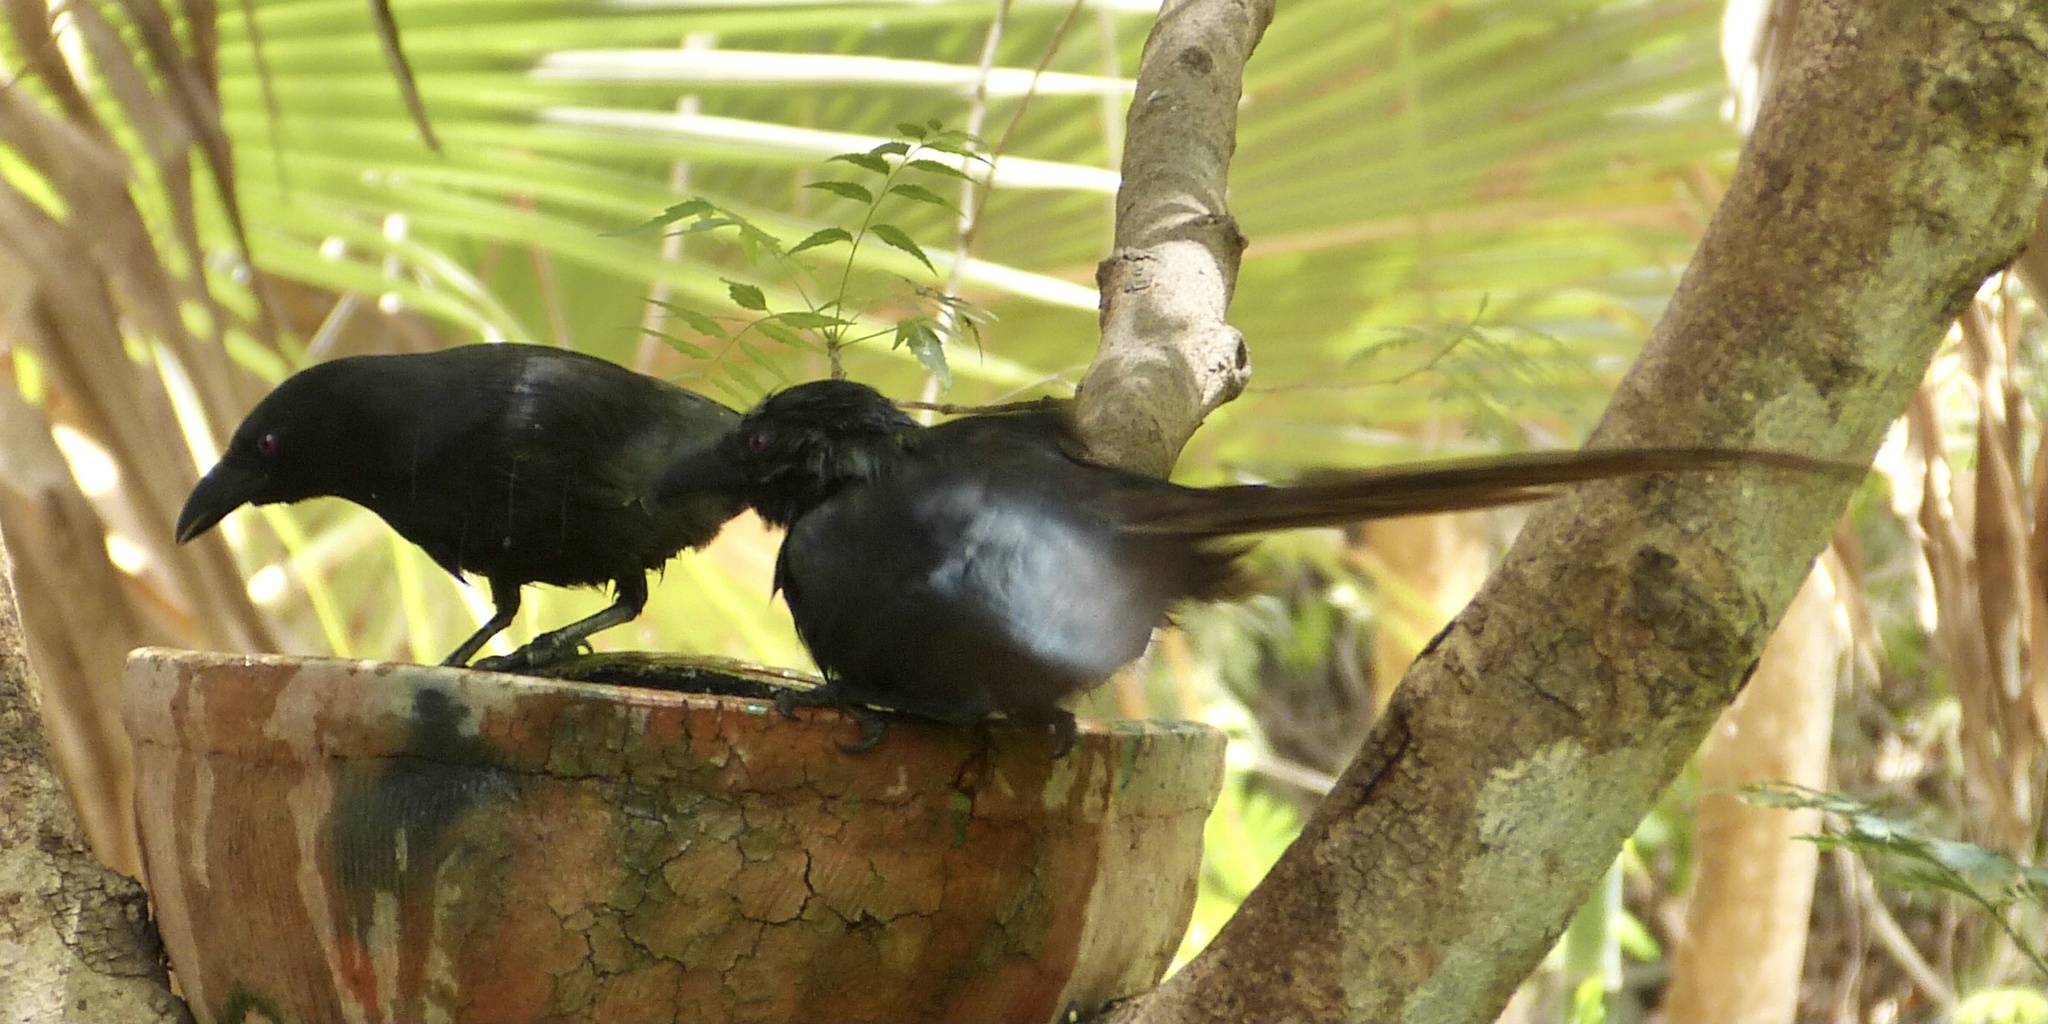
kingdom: Animalia
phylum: Chordata
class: Aves
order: Passeriformes
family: Corvidae
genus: Ptilostomus
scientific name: Ptilostomus afer
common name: Piapiac
